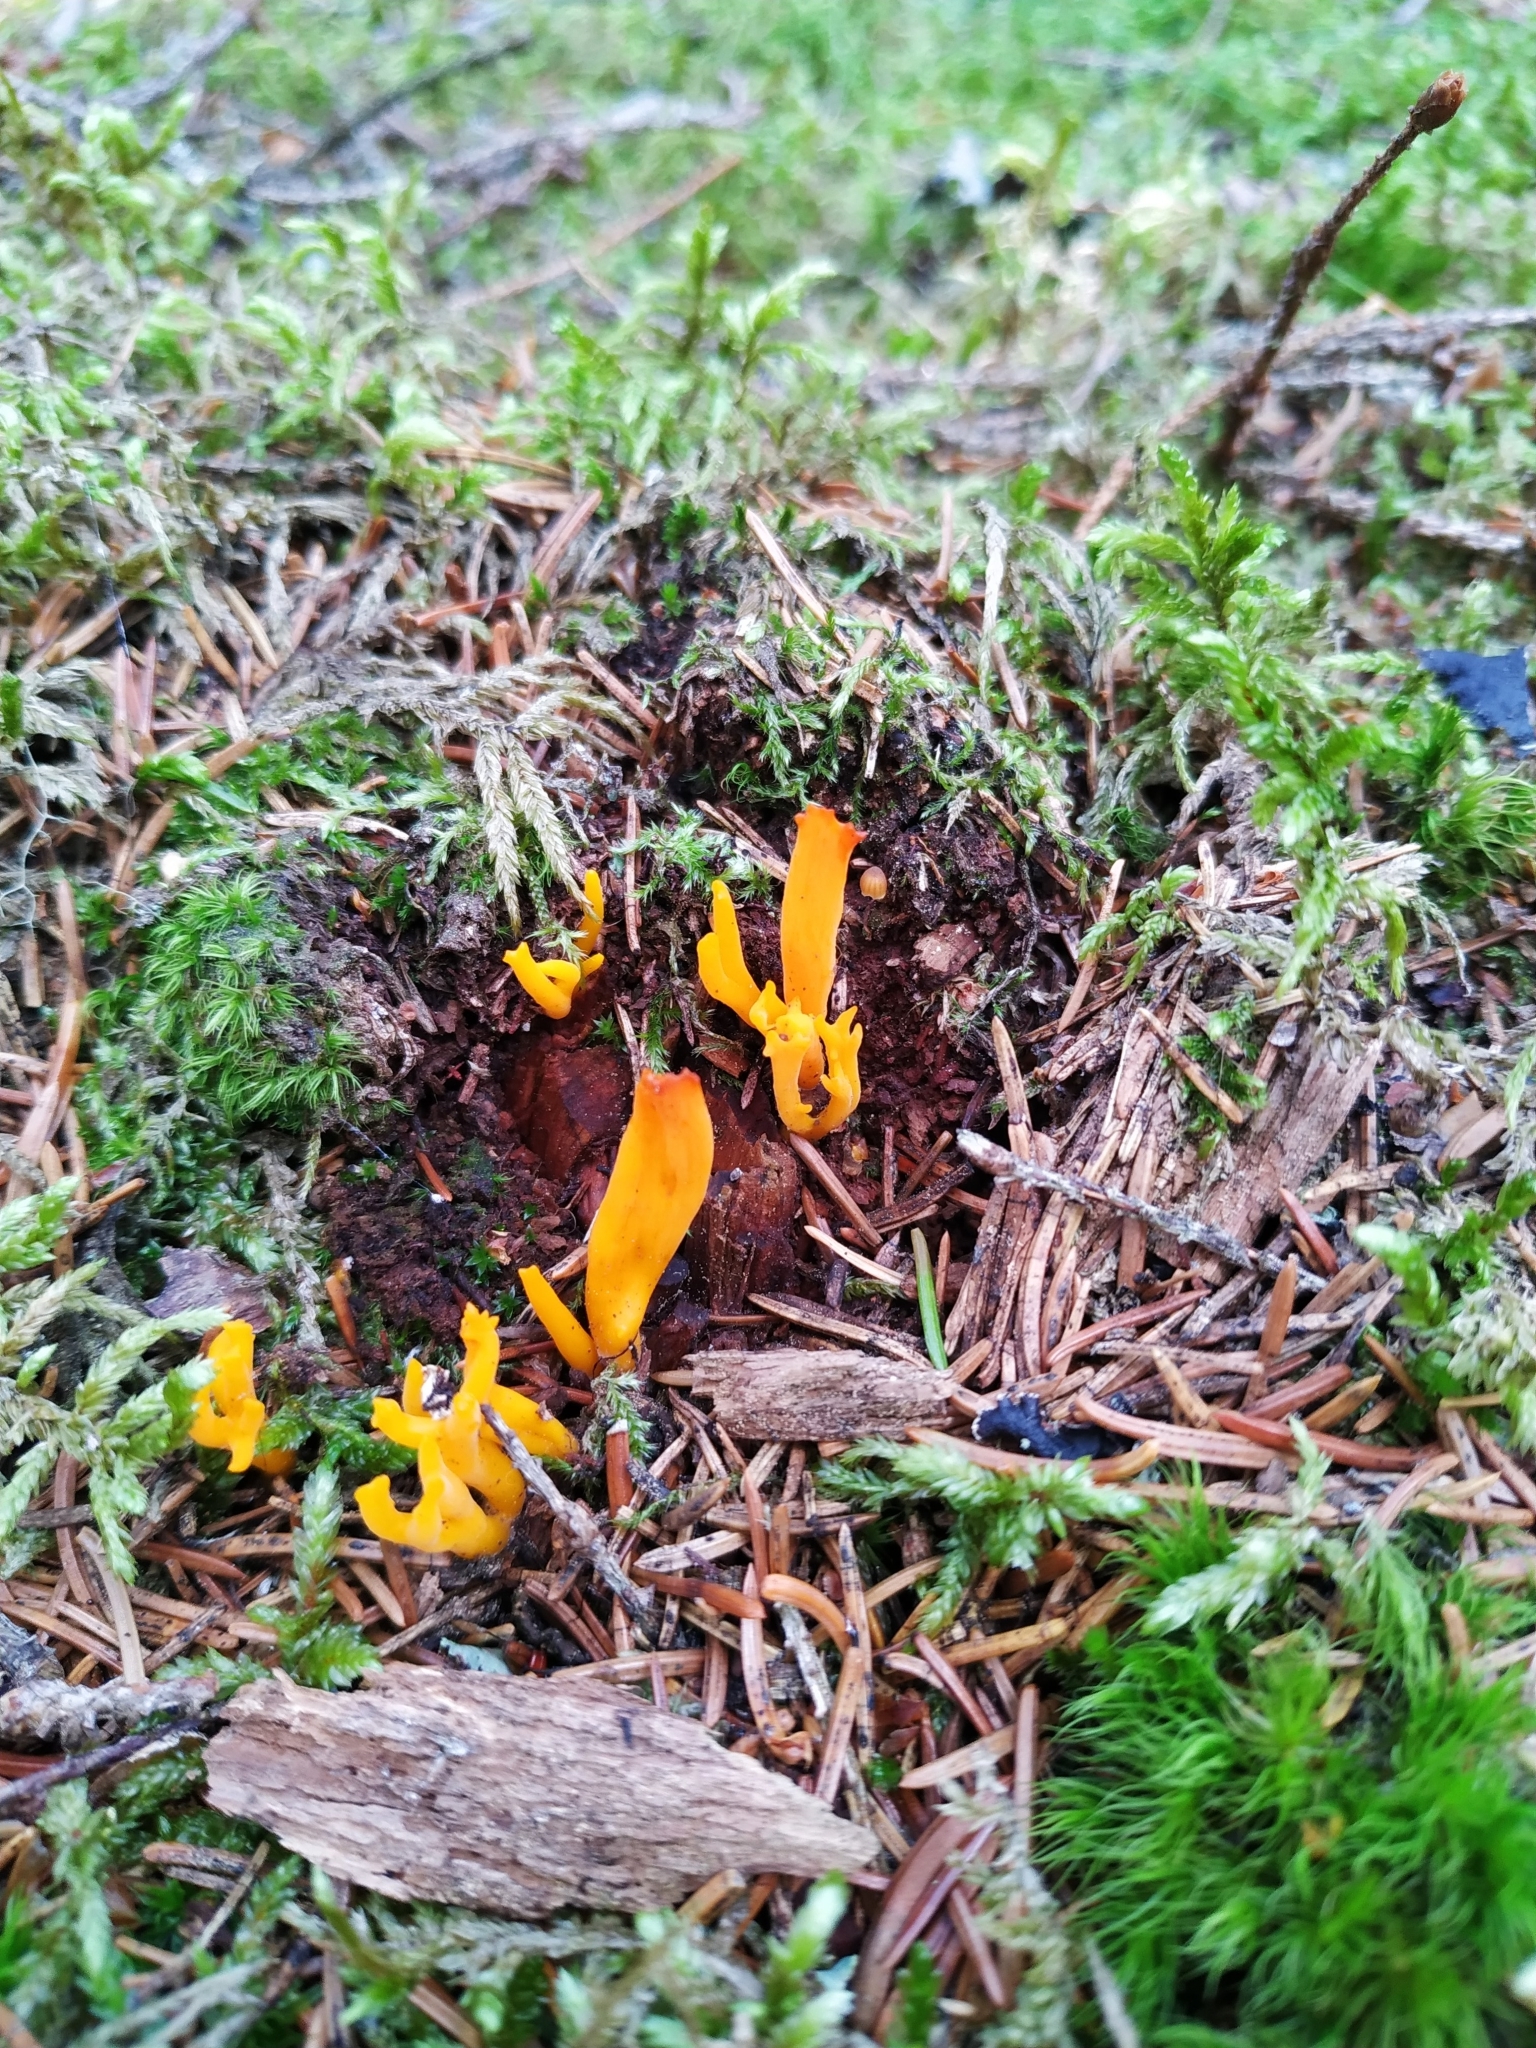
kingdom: Fungi
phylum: Basidiomycota
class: Dacrymycetes
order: Dacrymycetales
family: Dacrymycetaceae
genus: Calocera
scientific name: Calocera viscosa
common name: Yellow stagshorn
